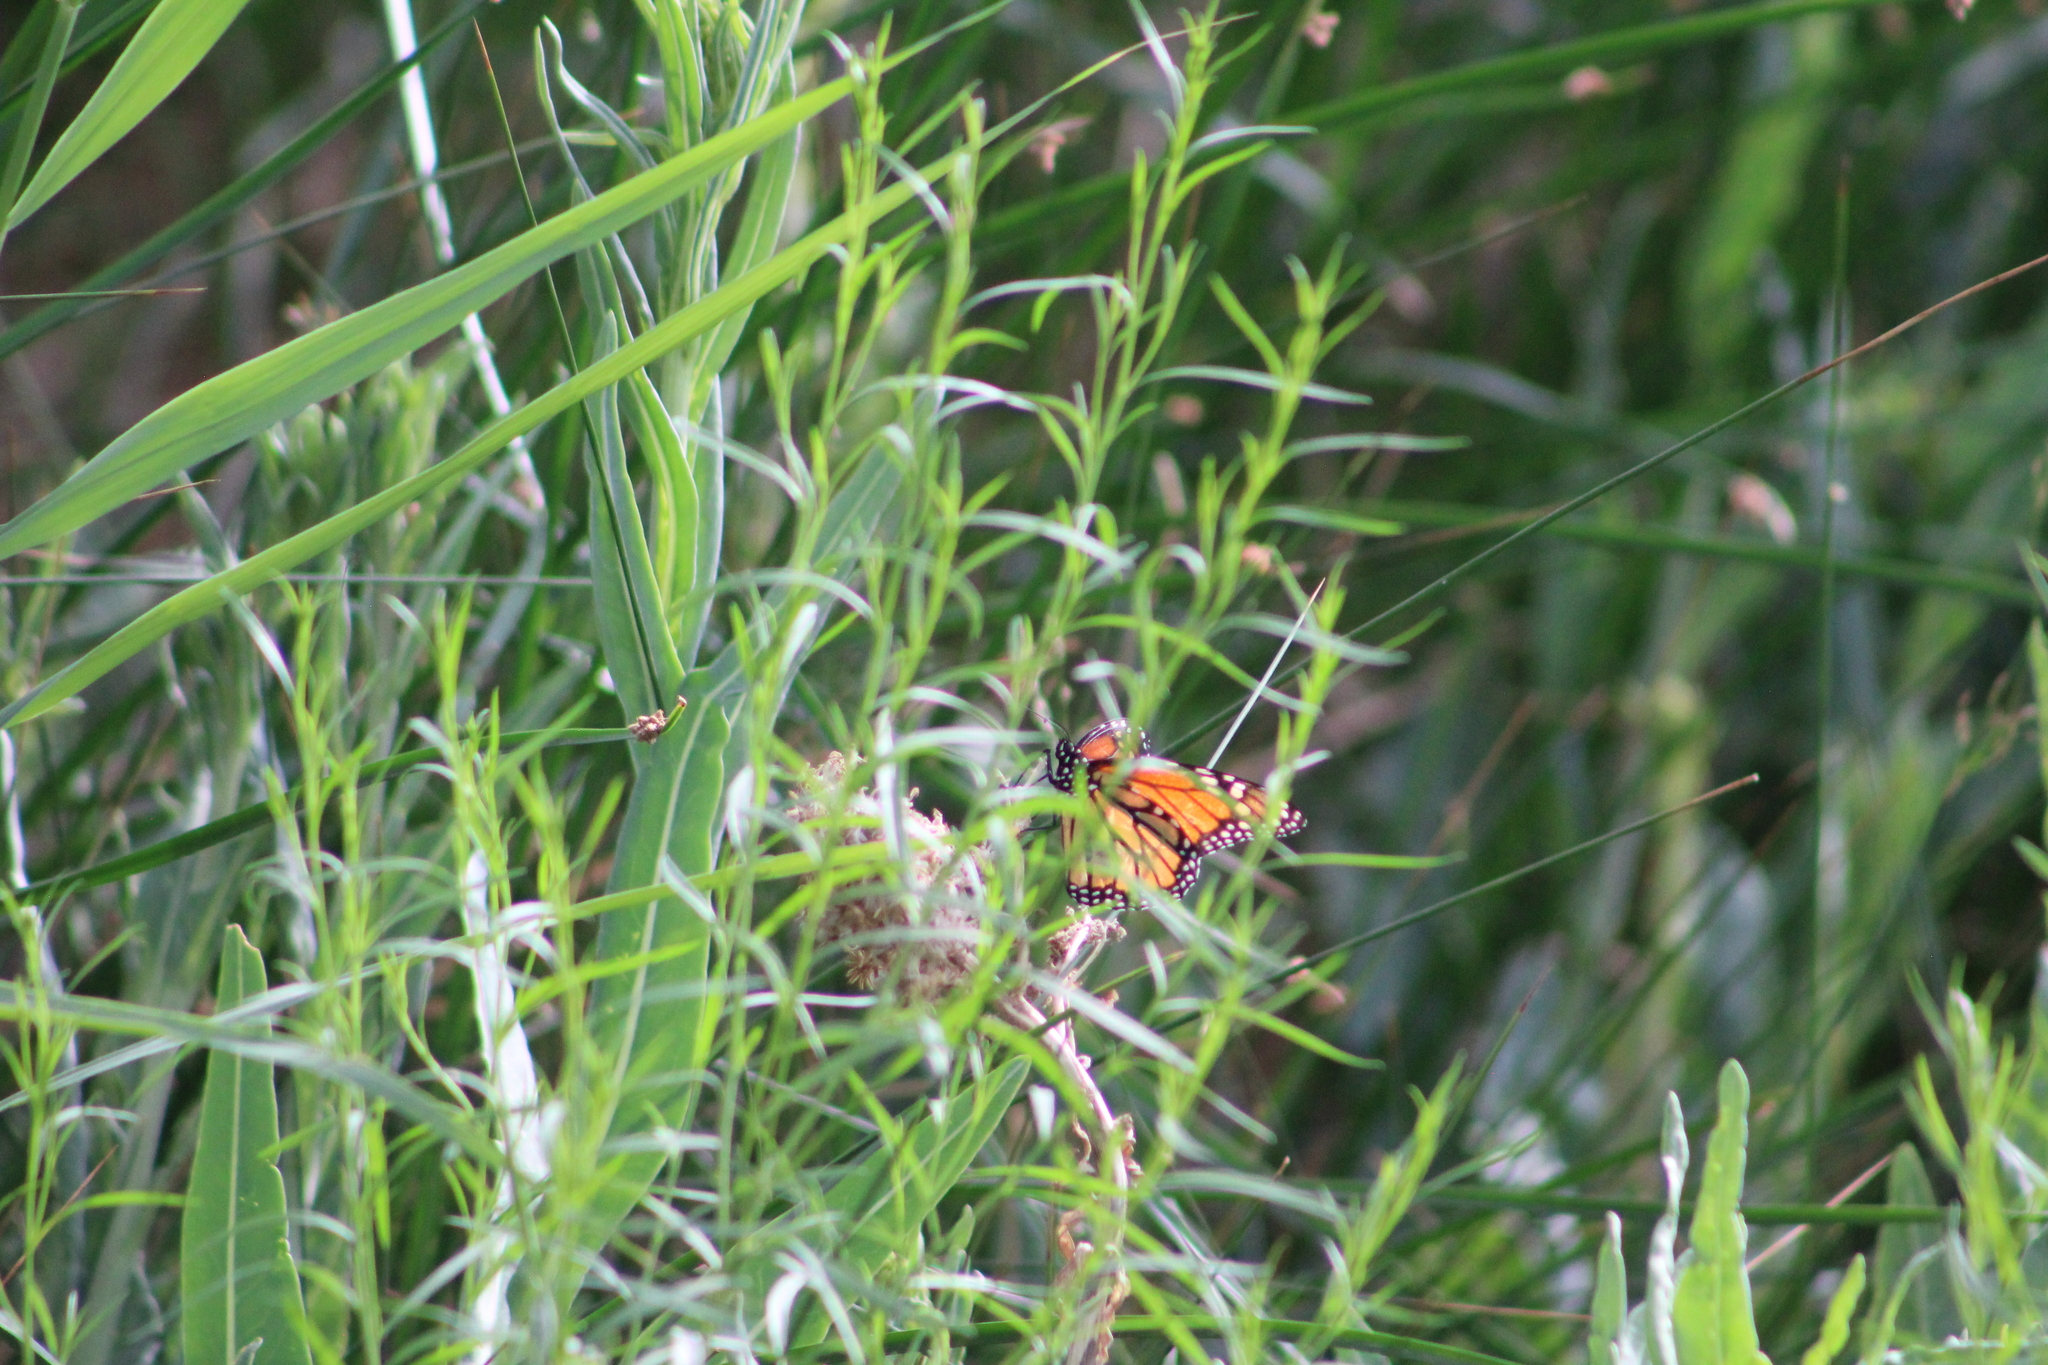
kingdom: Animalia
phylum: Arthropoda
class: Insecta
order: Lepidoptera
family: Nymphalidae
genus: Danaus
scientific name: Danaus plexippus
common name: Monarch
